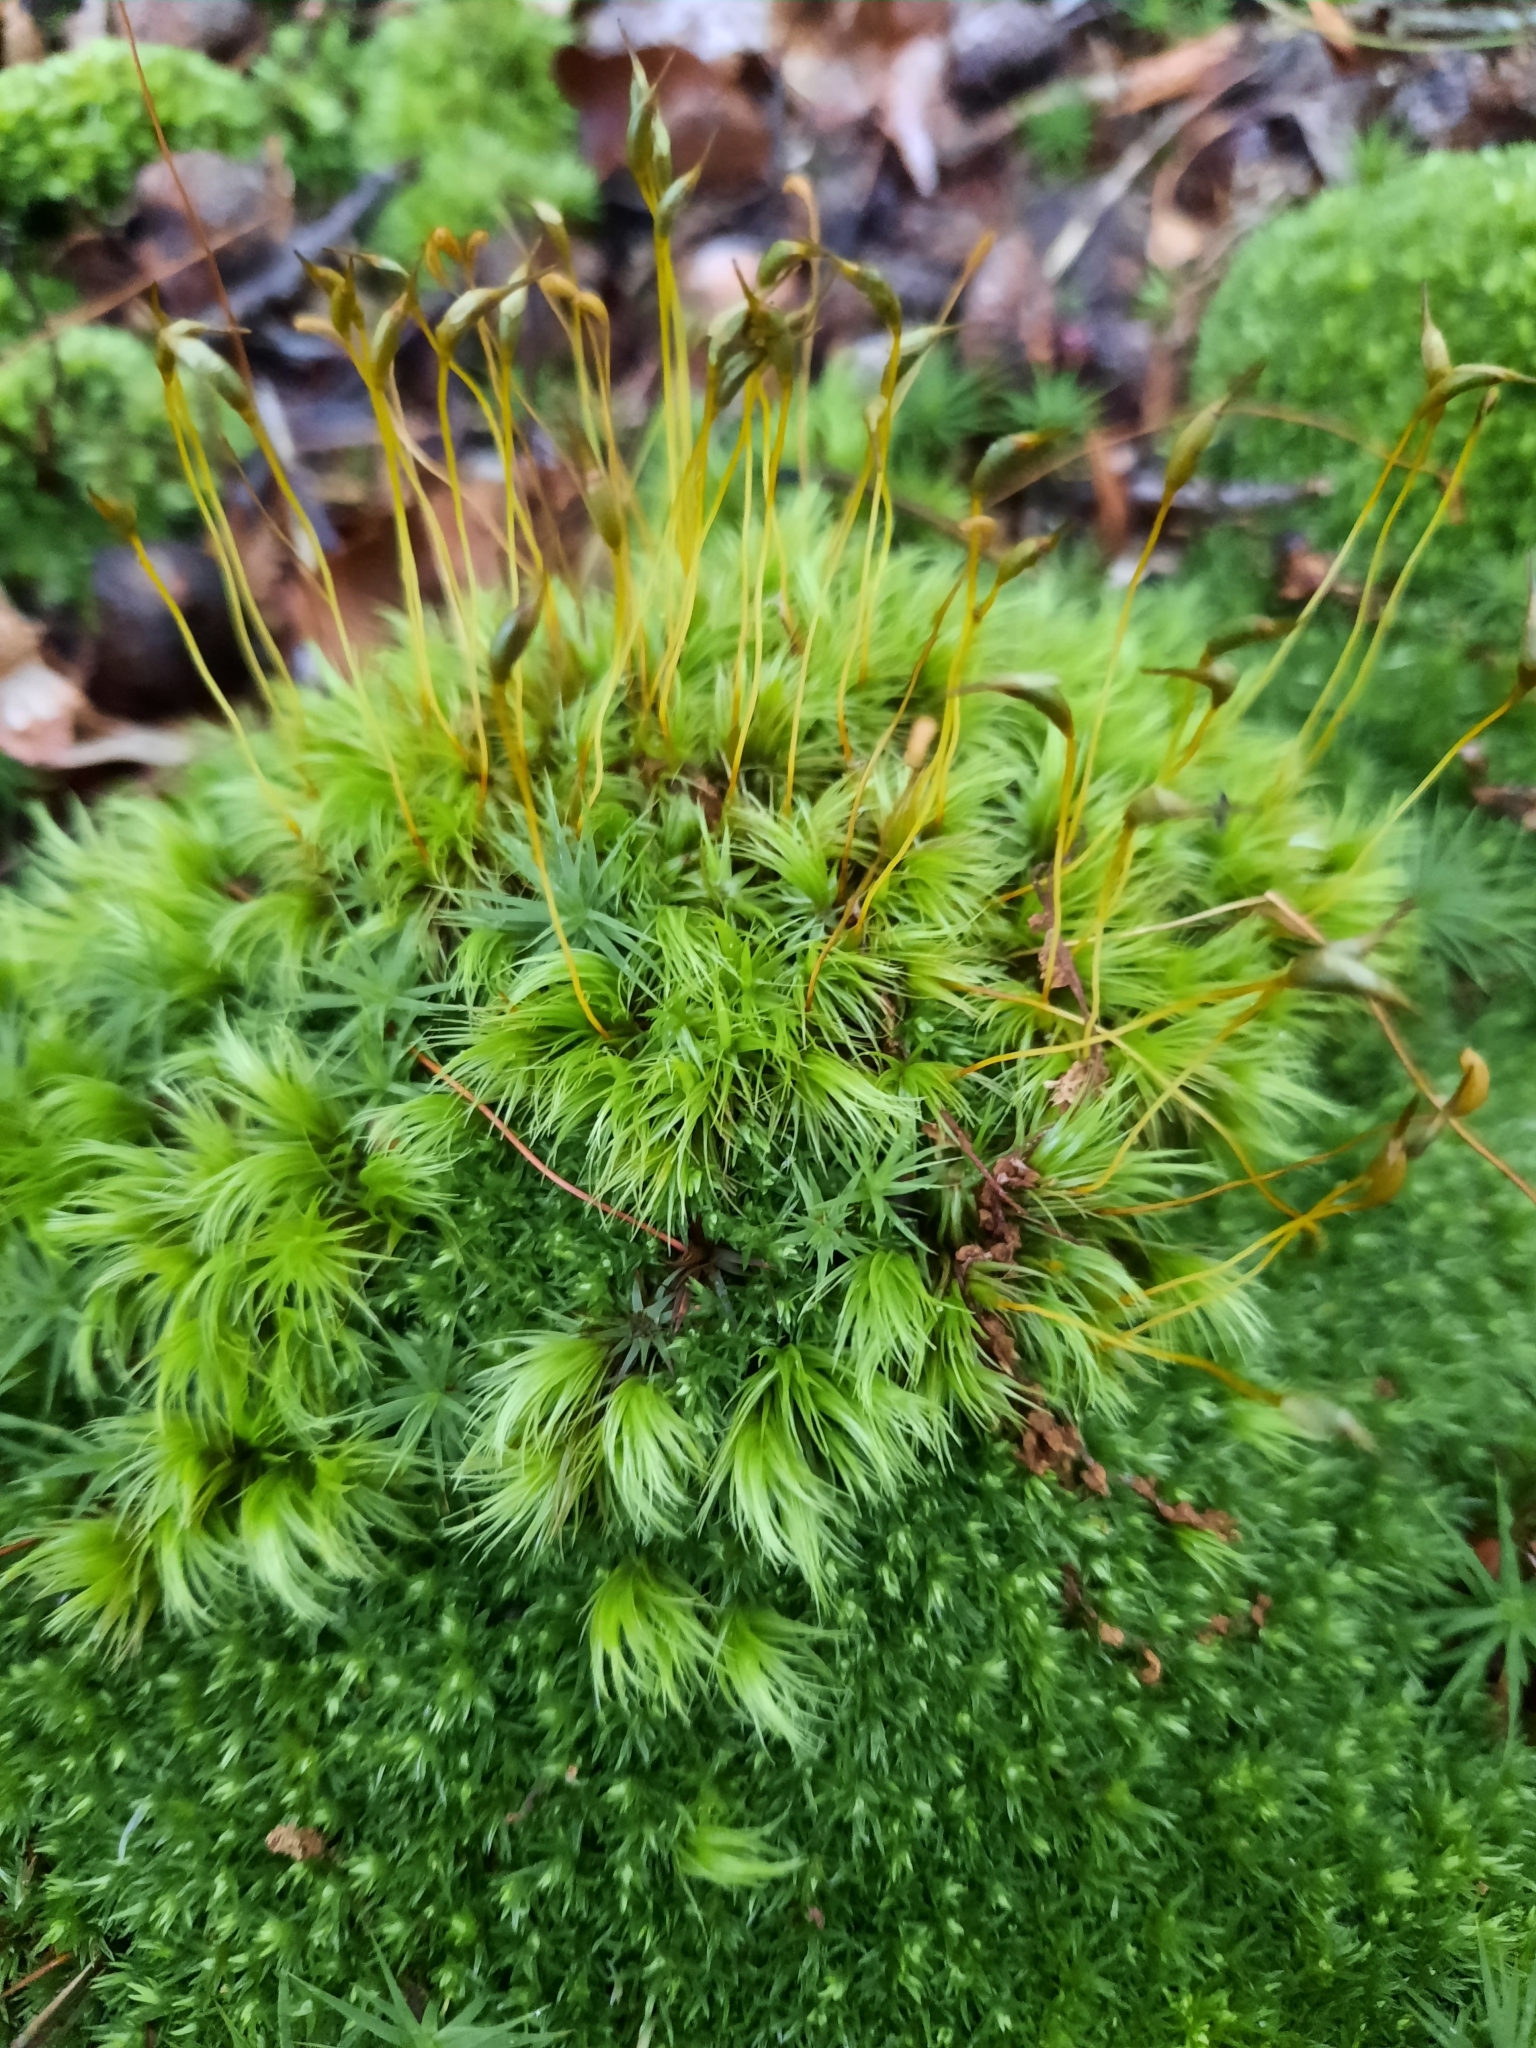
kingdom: Plantae
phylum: Bryophyta
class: Bryopsida
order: Dicranales
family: Dicranaceae
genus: Dicranum
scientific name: Dicranum scoparium
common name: Broom fork-moss
